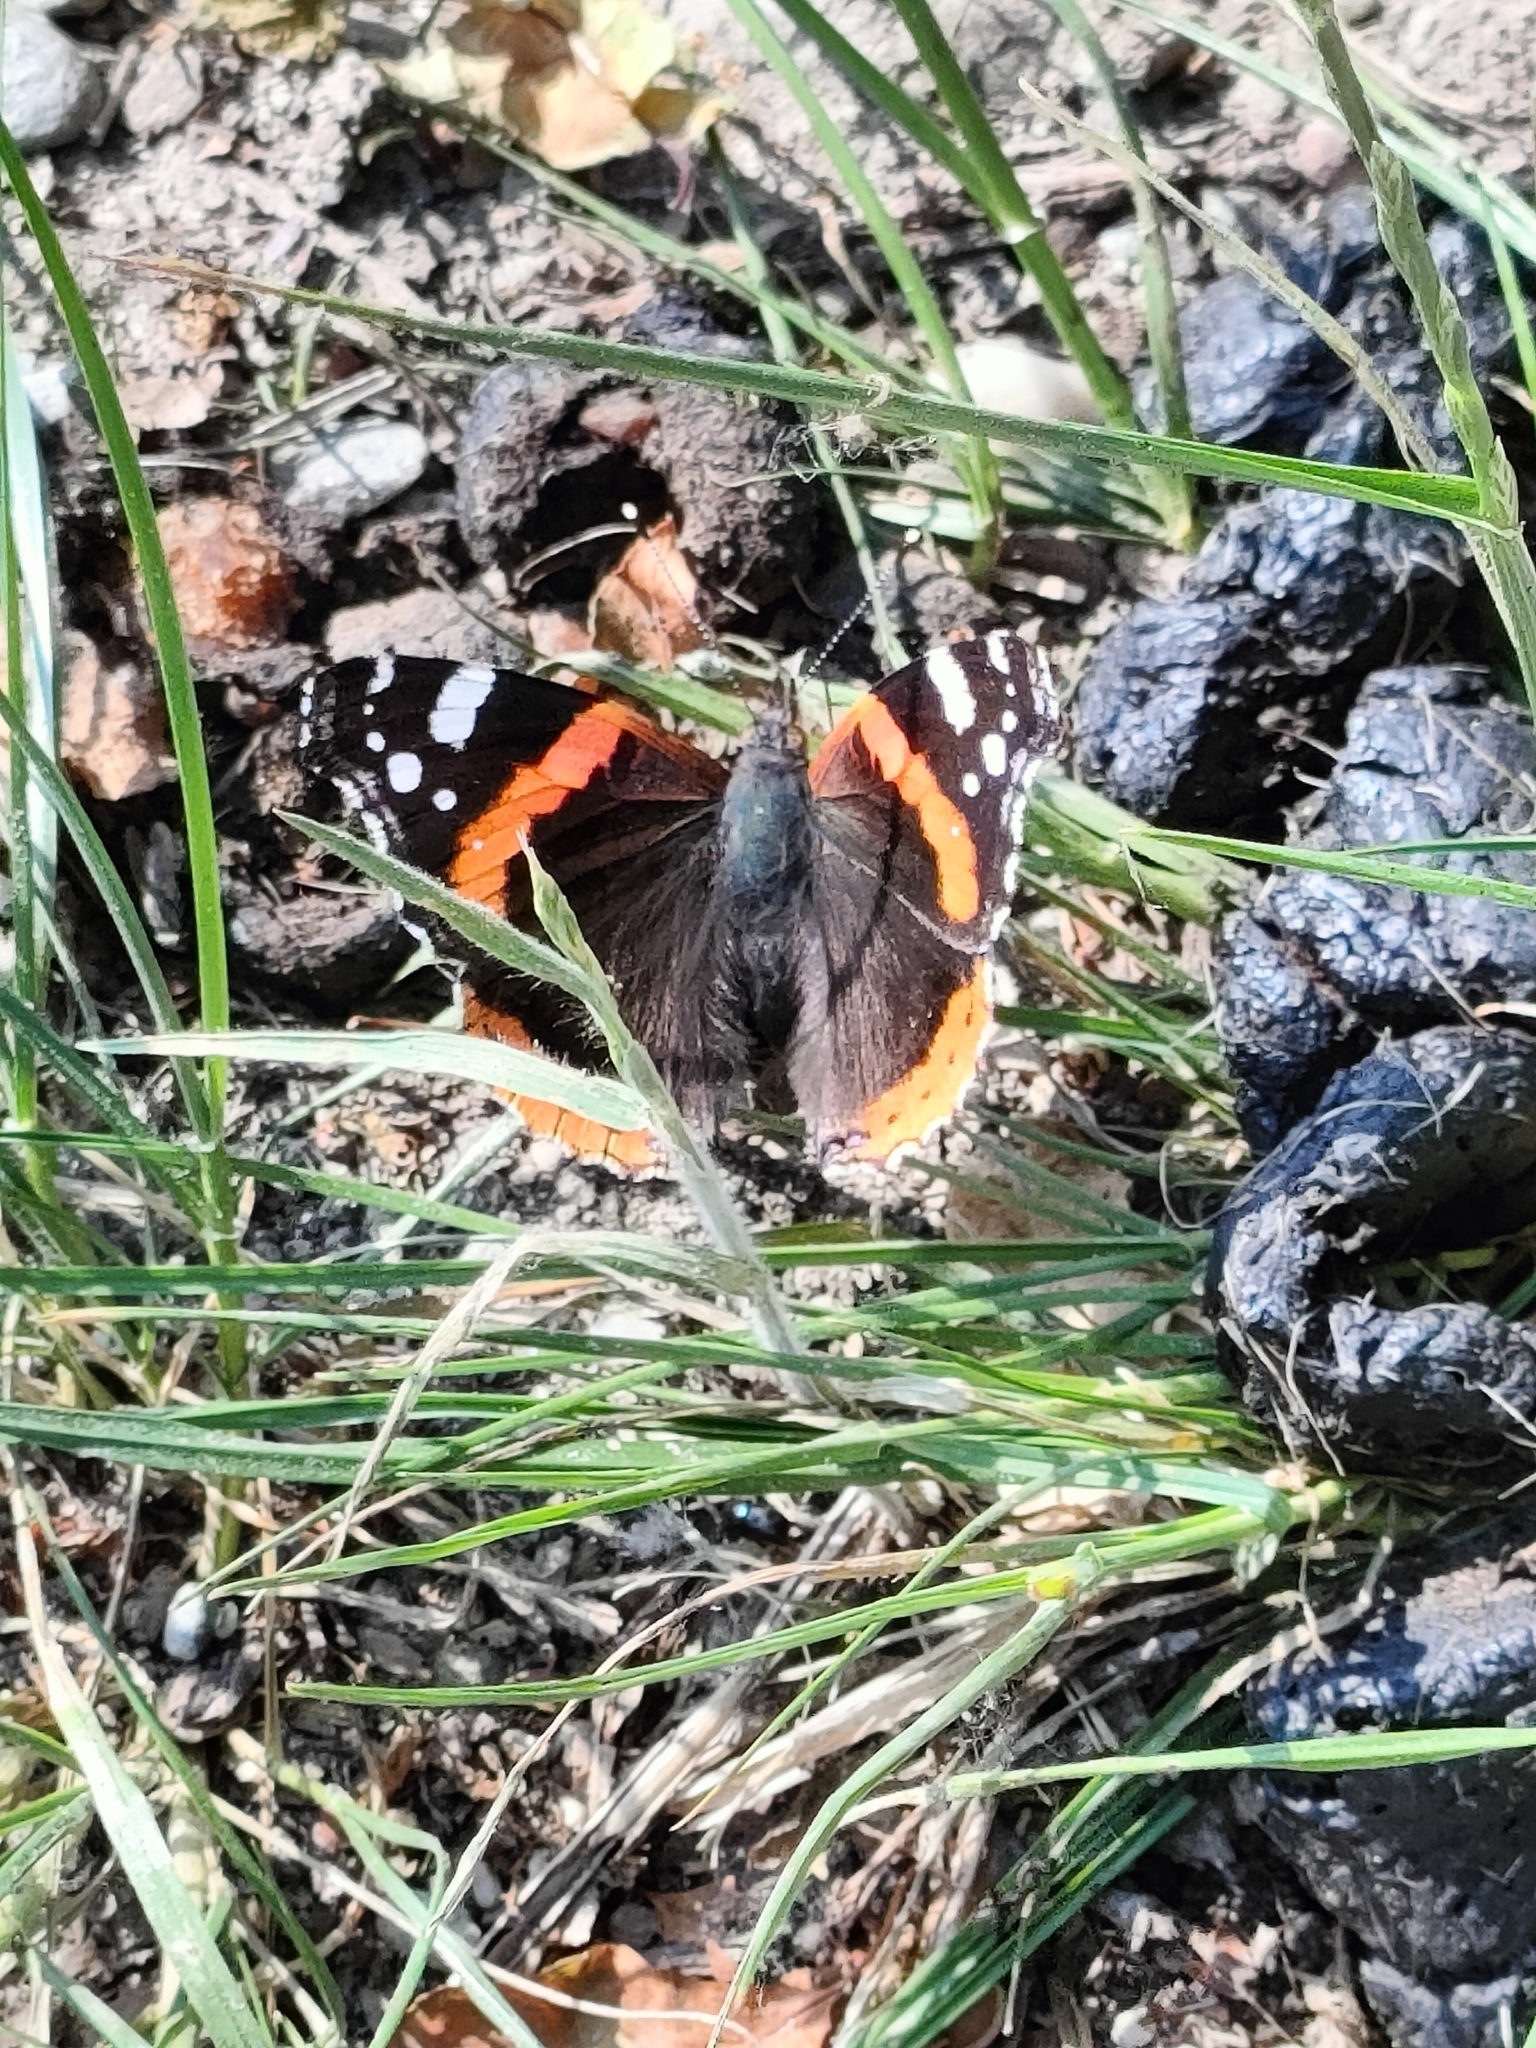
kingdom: Animalia
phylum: Arthropoda
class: Insecta
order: Lepidoptera
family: Nymphalidae
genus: Vanessa
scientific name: Vanessa atalanta
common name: Red admiral
